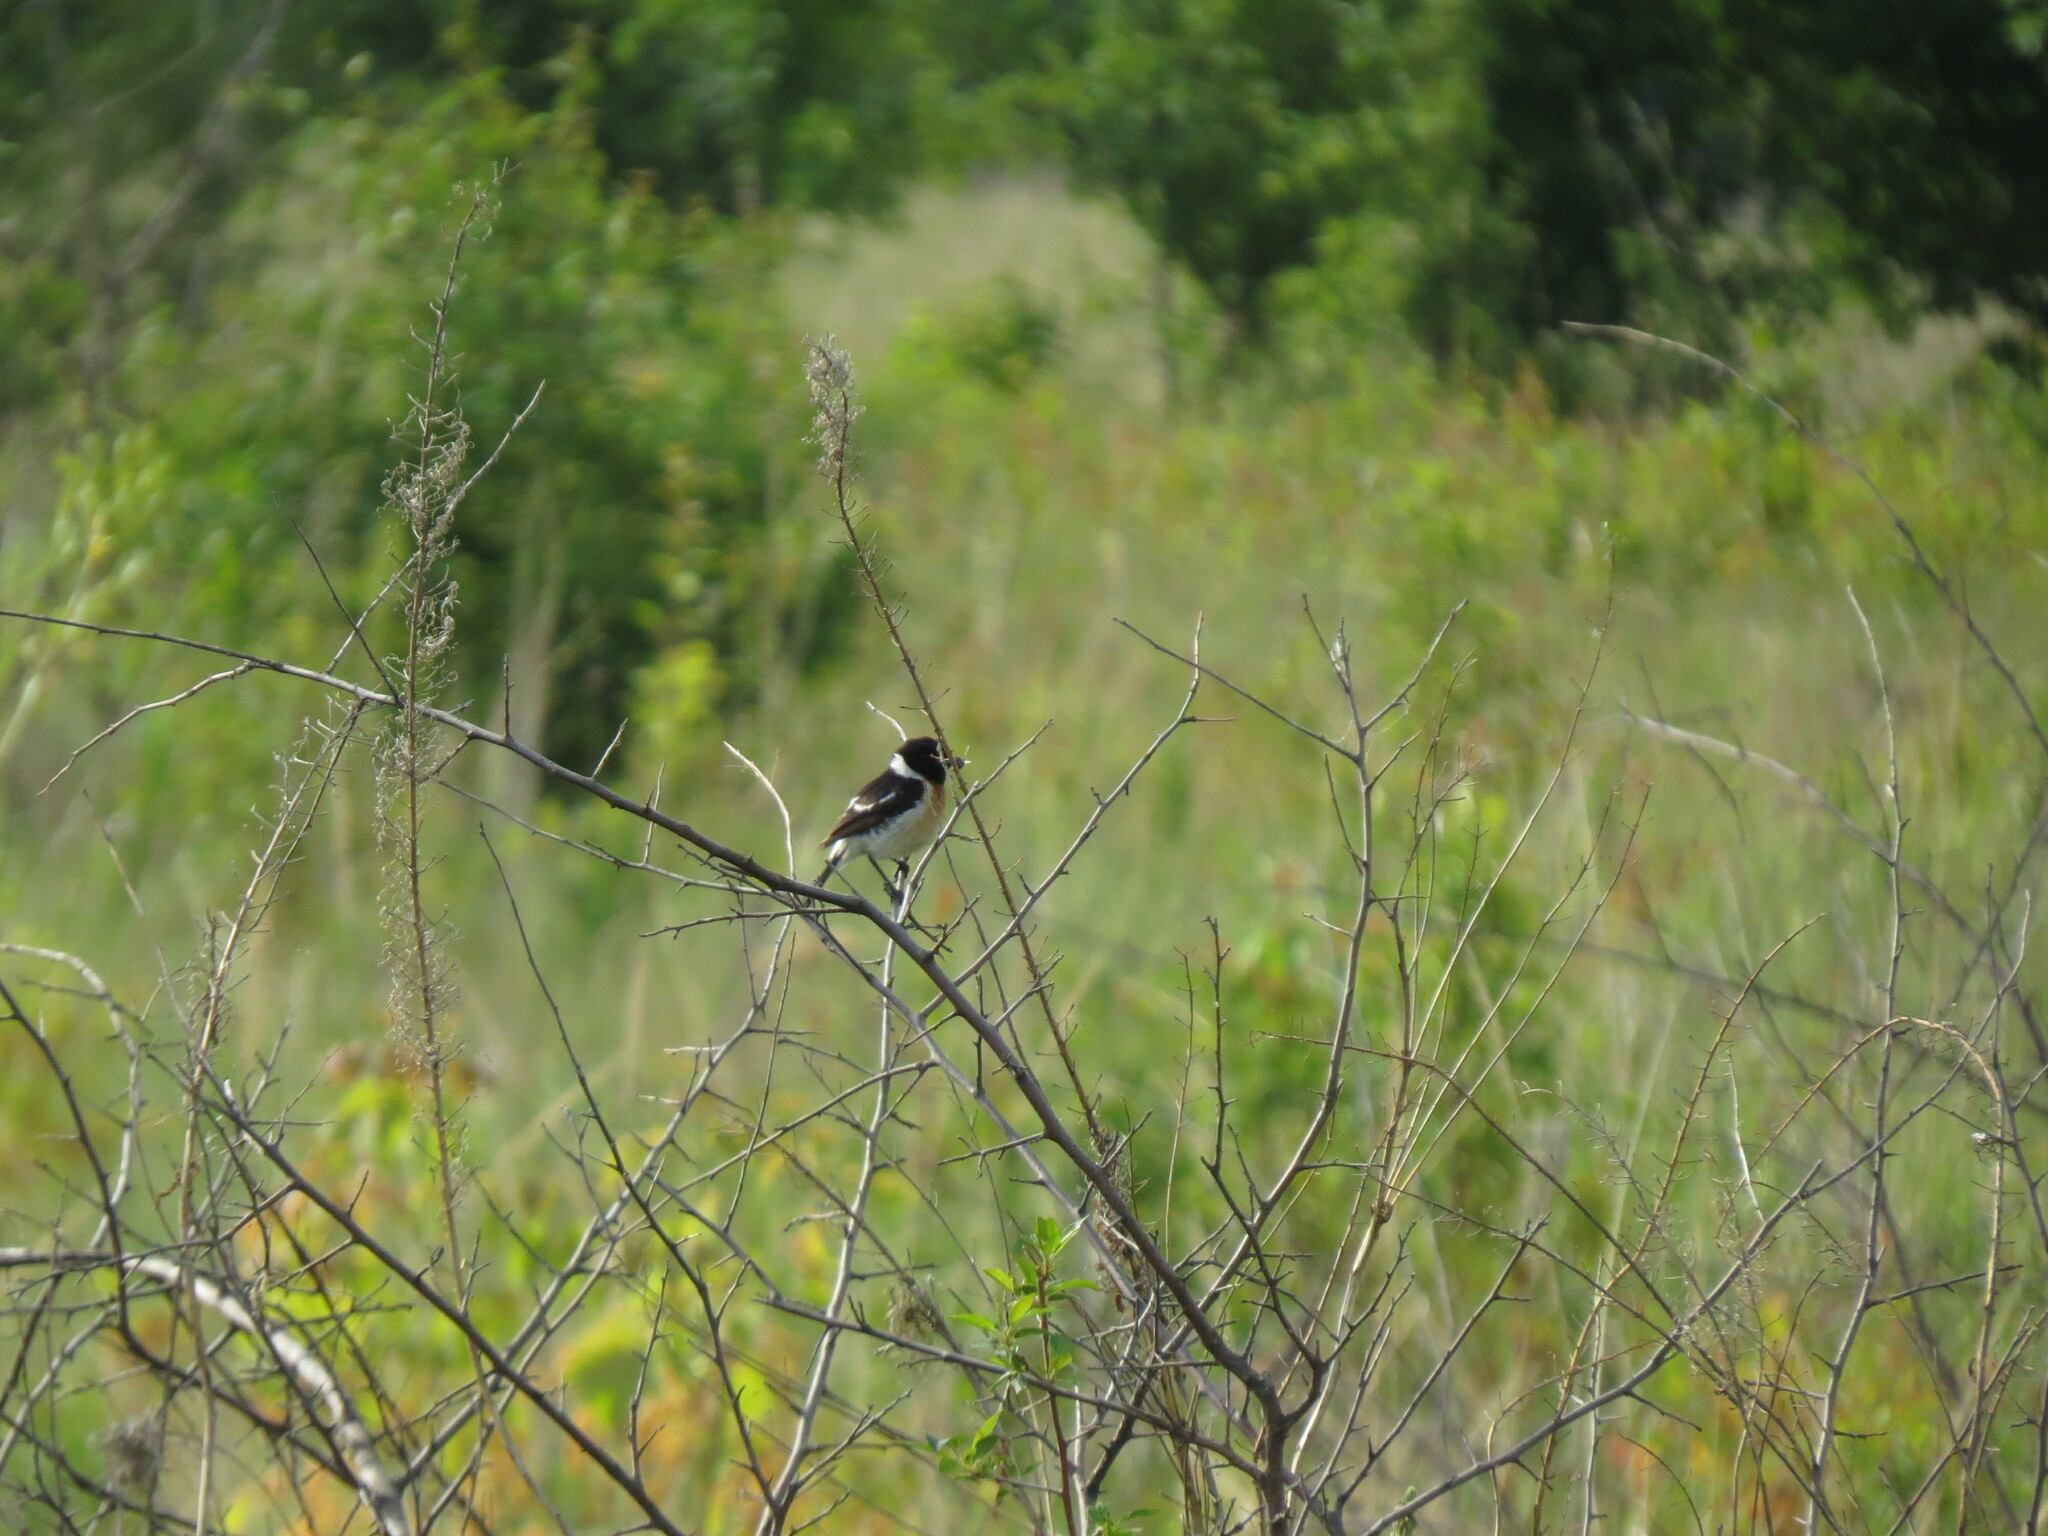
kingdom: Animalia
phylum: Chordata
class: Aves
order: Passeriformes
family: Muscicapidae
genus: Saxicola
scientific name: Saxicola maurus
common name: Siberian stonechat
